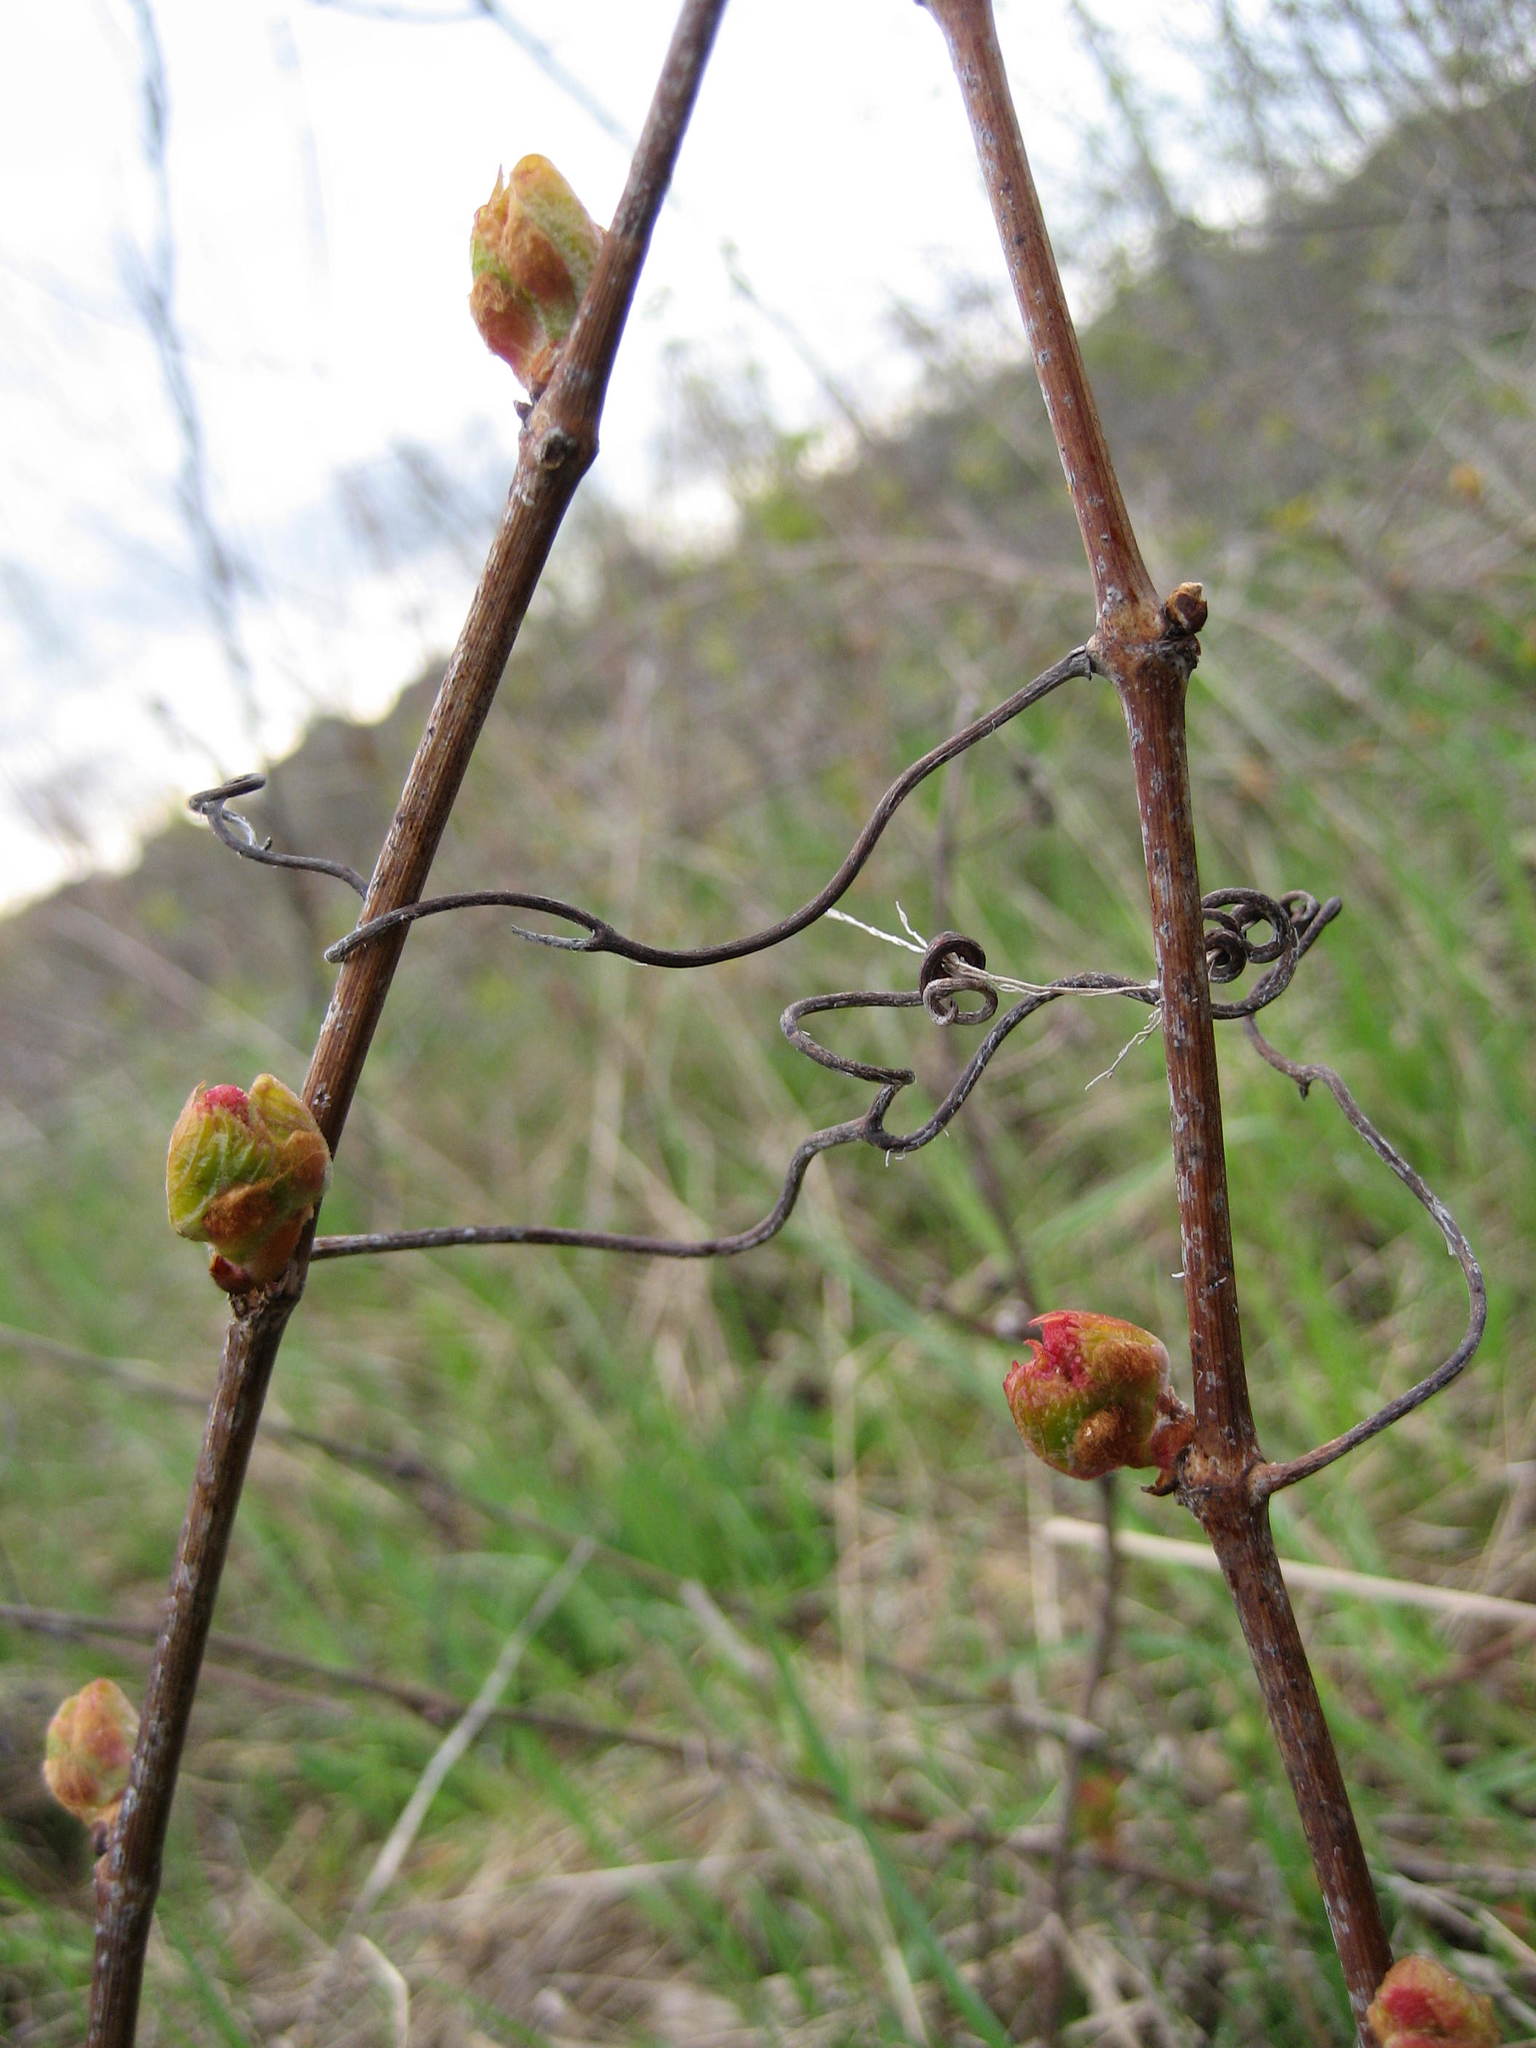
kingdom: Plantae
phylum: Tracheophyta
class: Magnoliopsida
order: Vitales
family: Vitaceae
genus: Vitis
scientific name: Vitis riparia
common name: Frost grape
